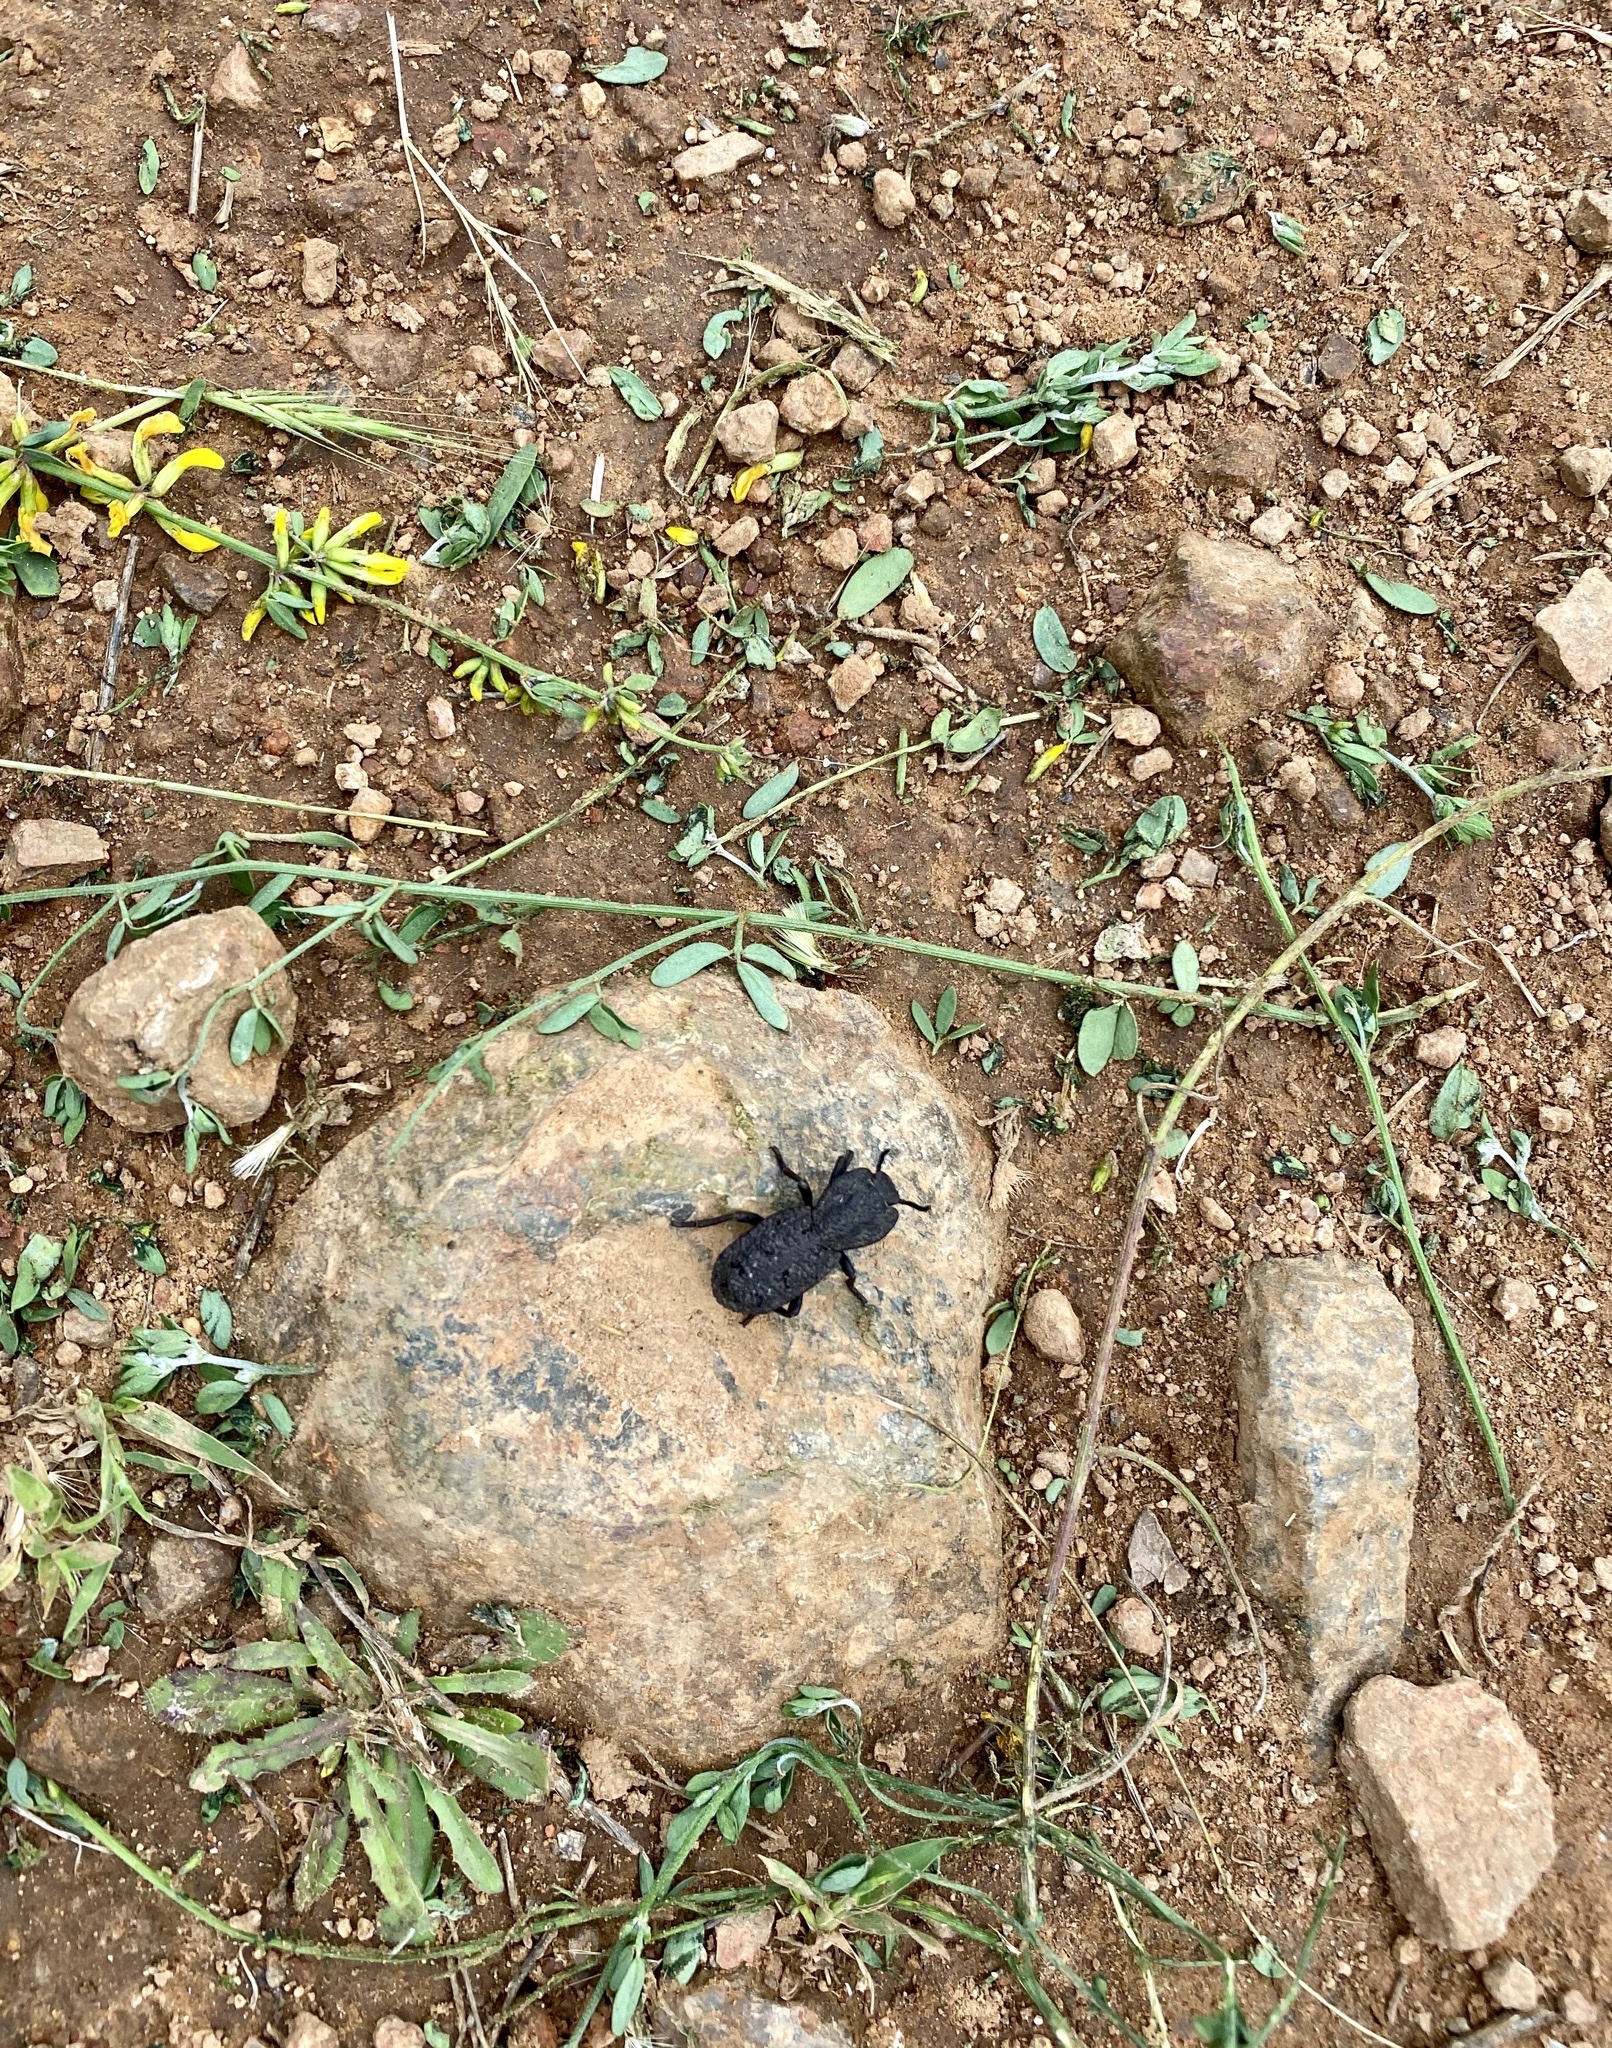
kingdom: Animalia
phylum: Arthropoda
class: Insecta
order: Coleoptera
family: Zopheridae
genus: Phloeodes
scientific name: Phloeodes diabolicus
